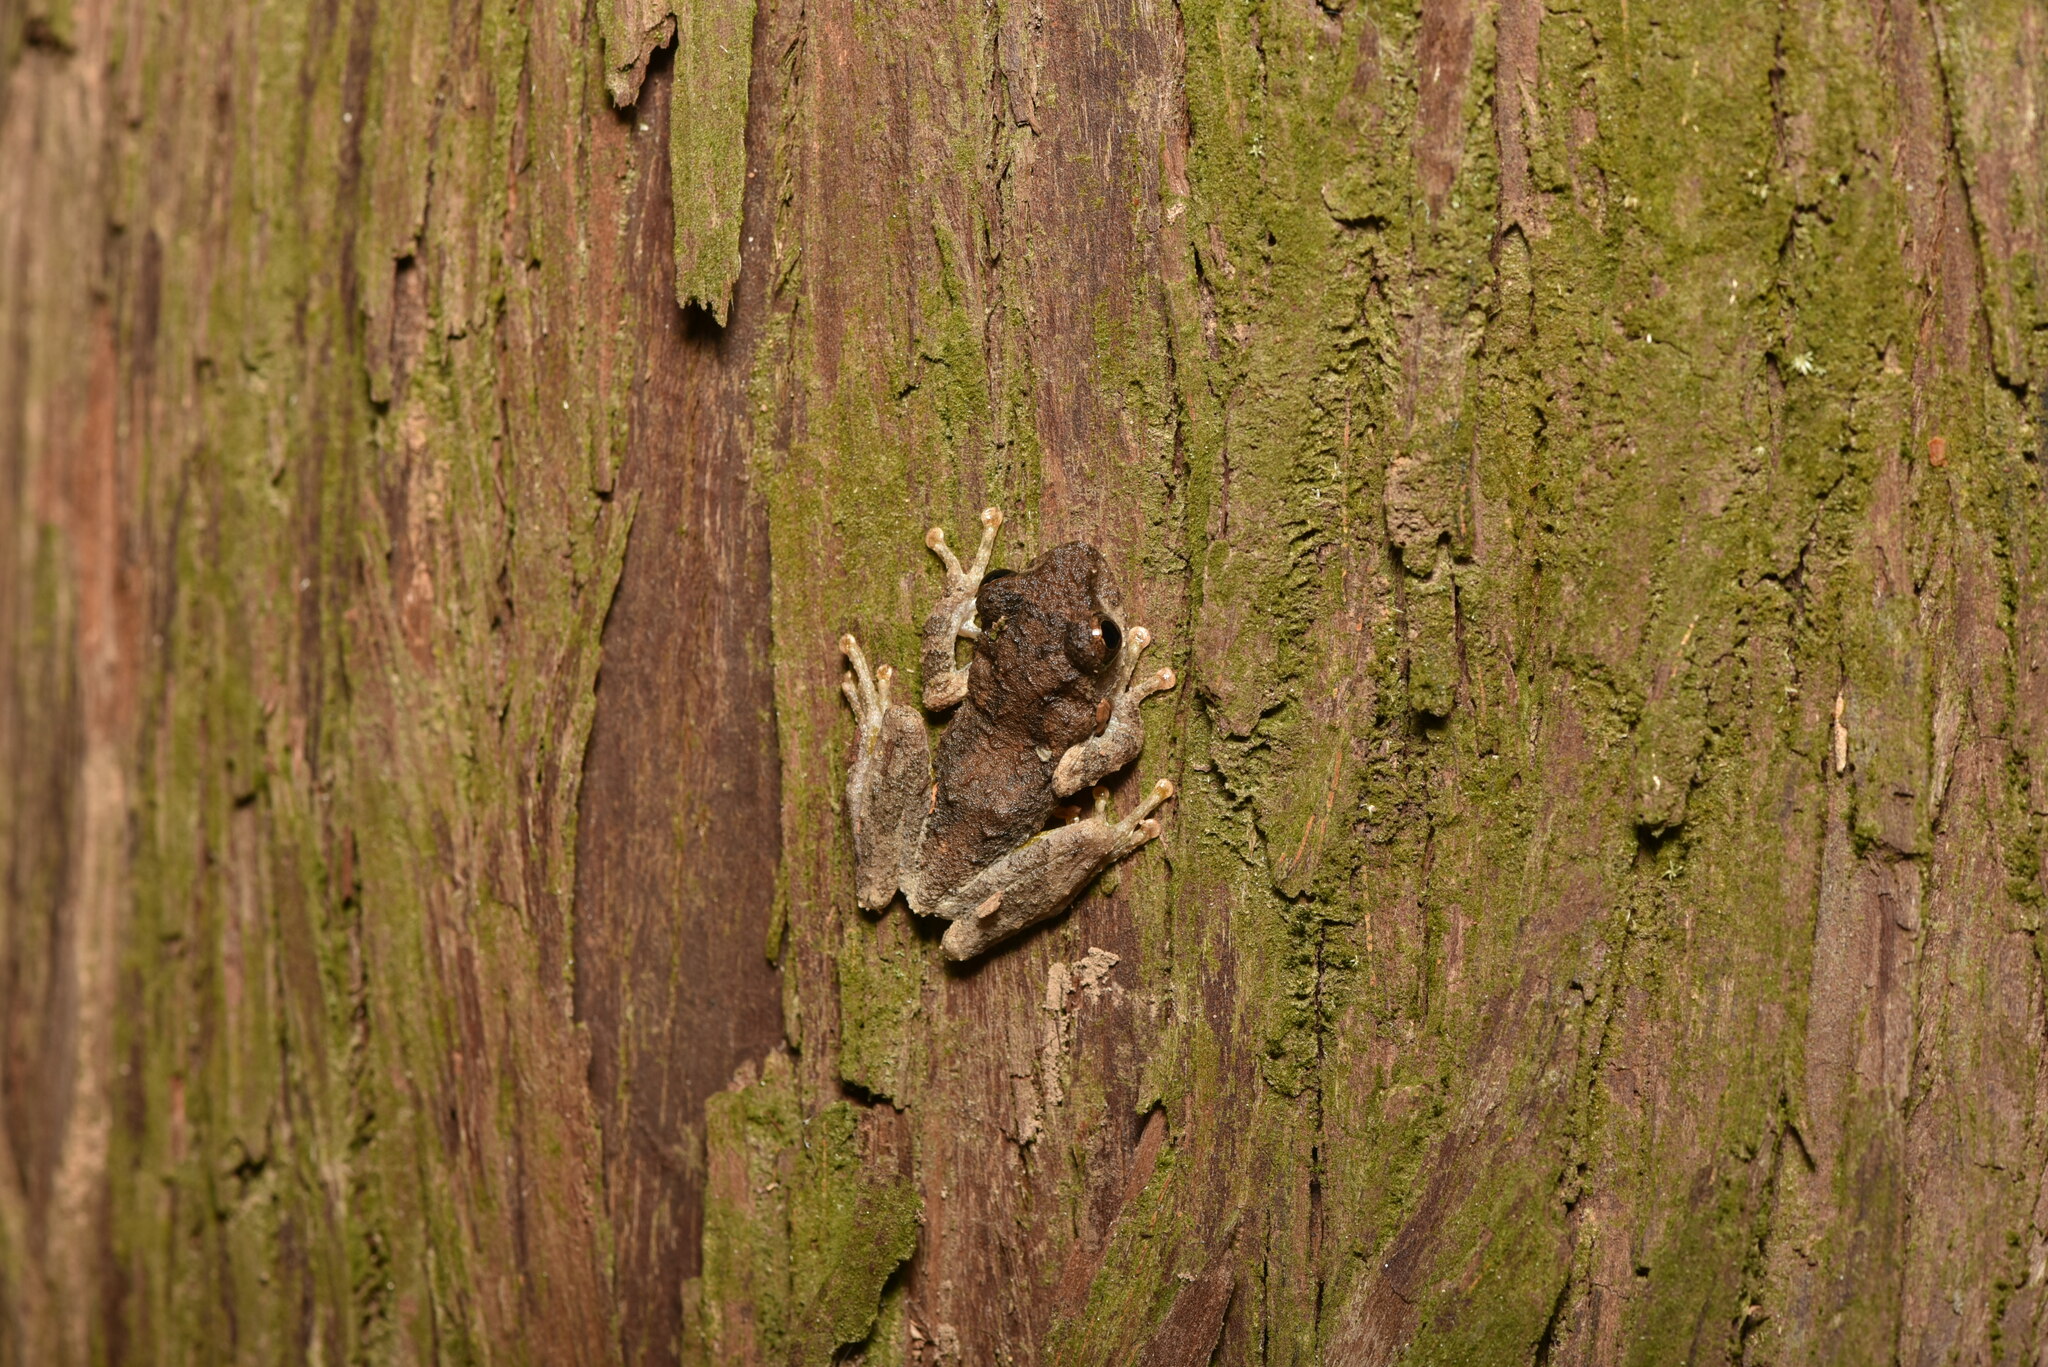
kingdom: Animalia
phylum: Chordata
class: Amphibia
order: Anura
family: Rhacophoridae
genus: Kurixalus
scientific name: Kurixalus idiootocus
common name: Temple treefrog
